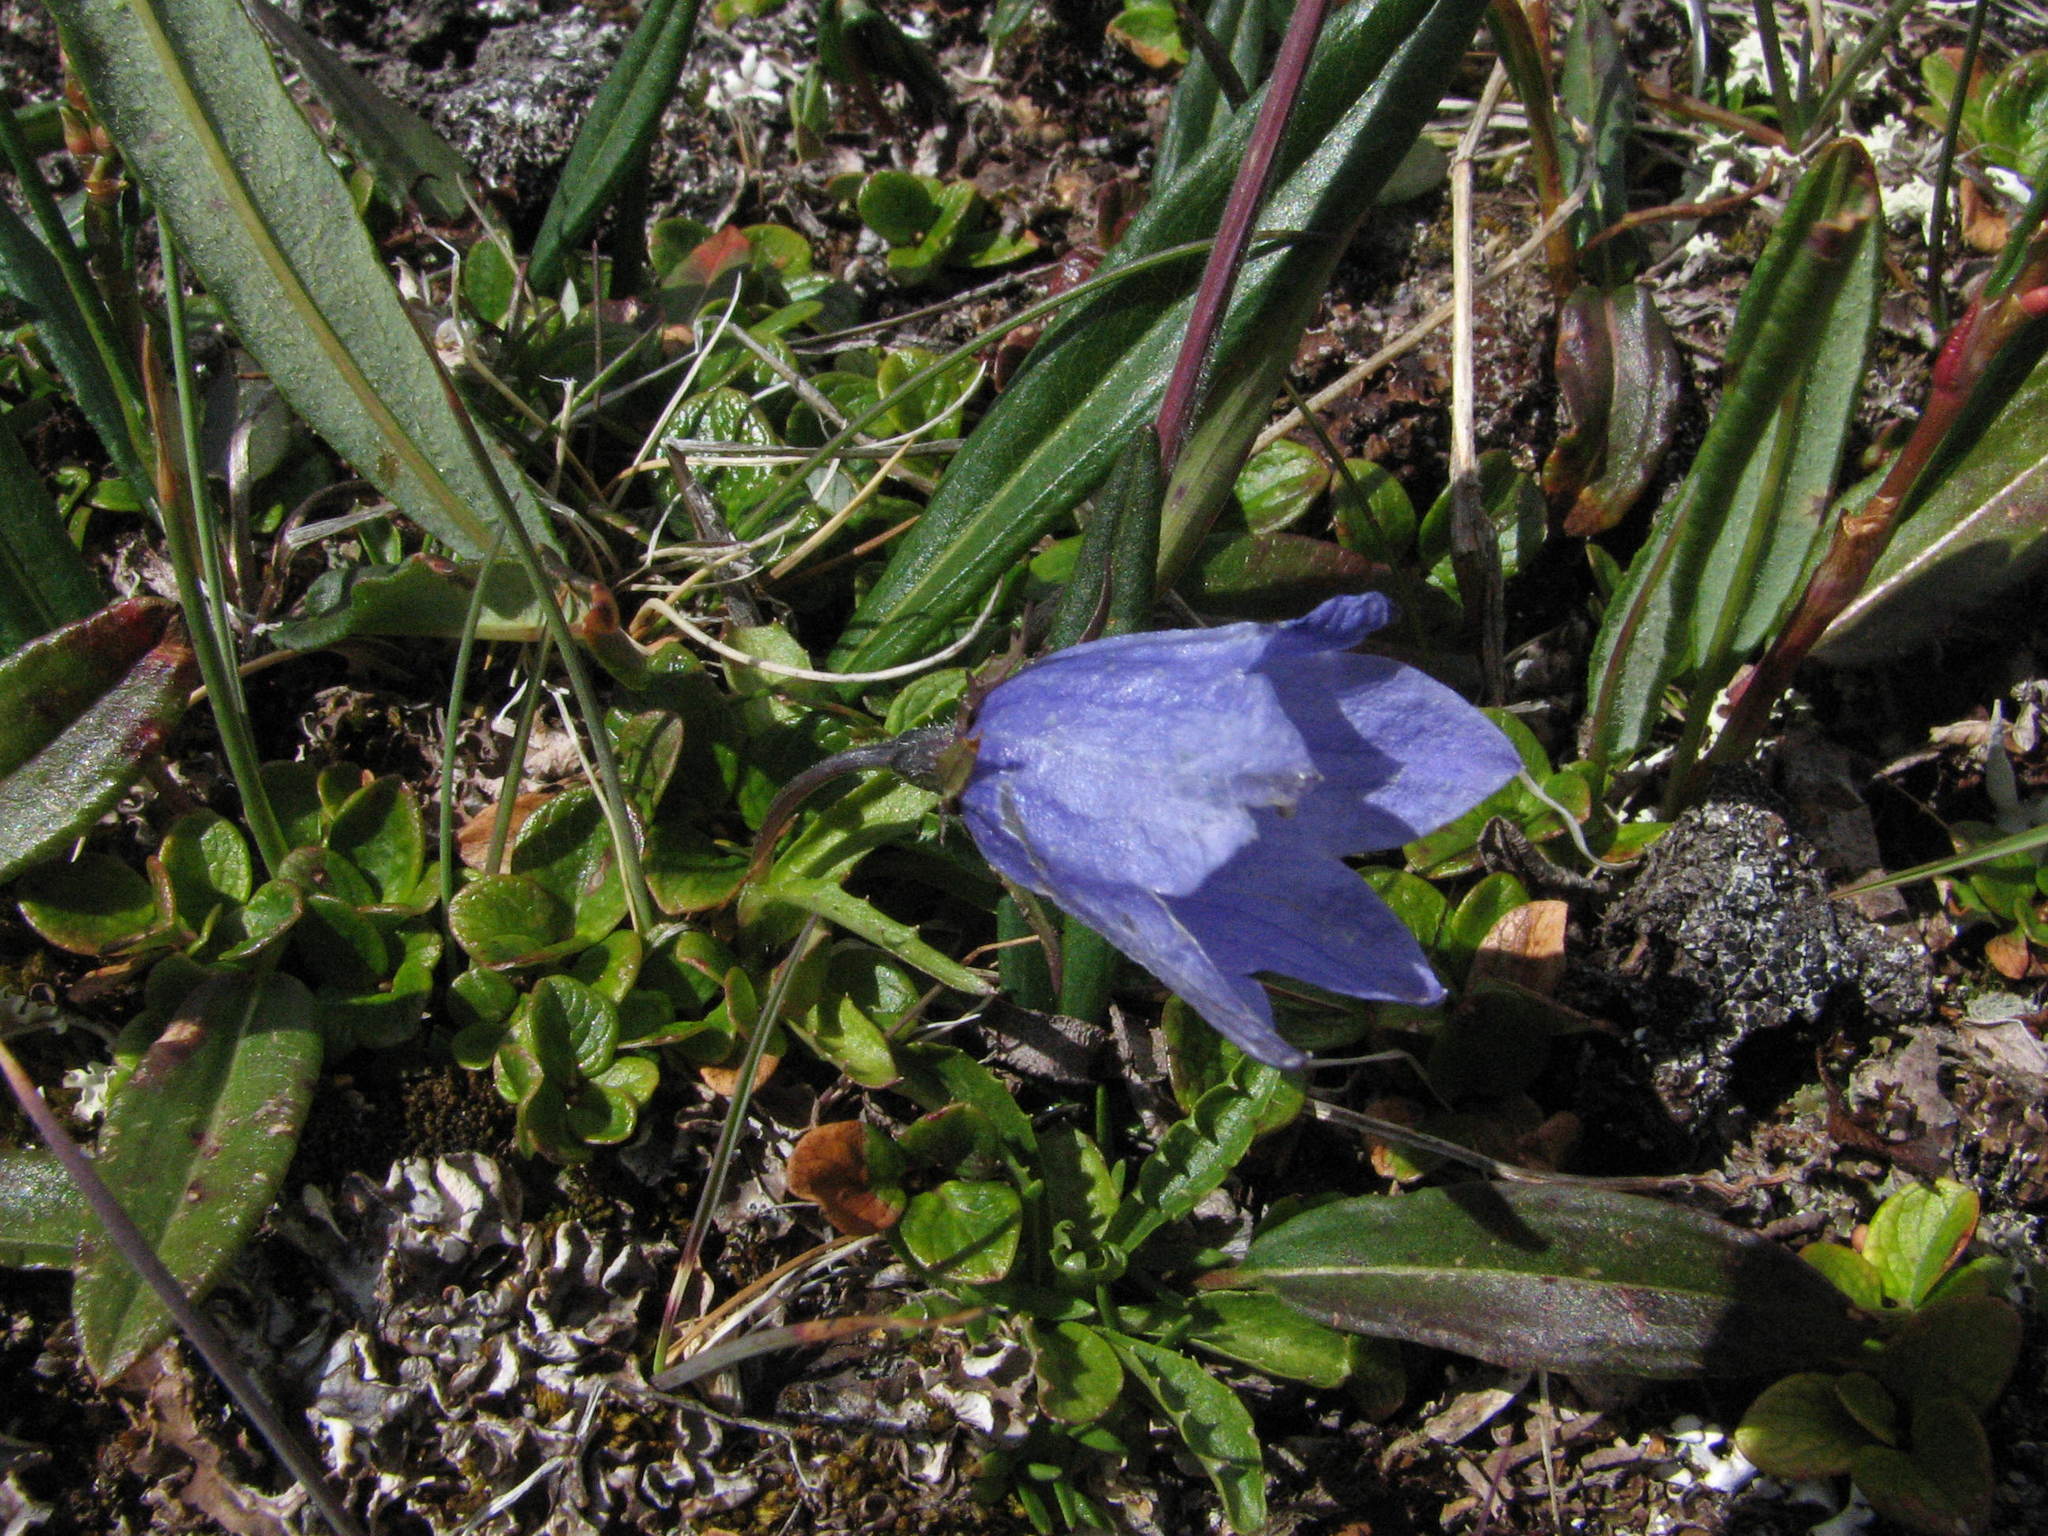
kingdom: Plantae
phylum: Tracheophyta
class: Magnoliopsida
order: Asterales
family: Campanulaceae
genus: Campanula
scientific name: Campanula lasiocarpa
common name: Mountain harebell
